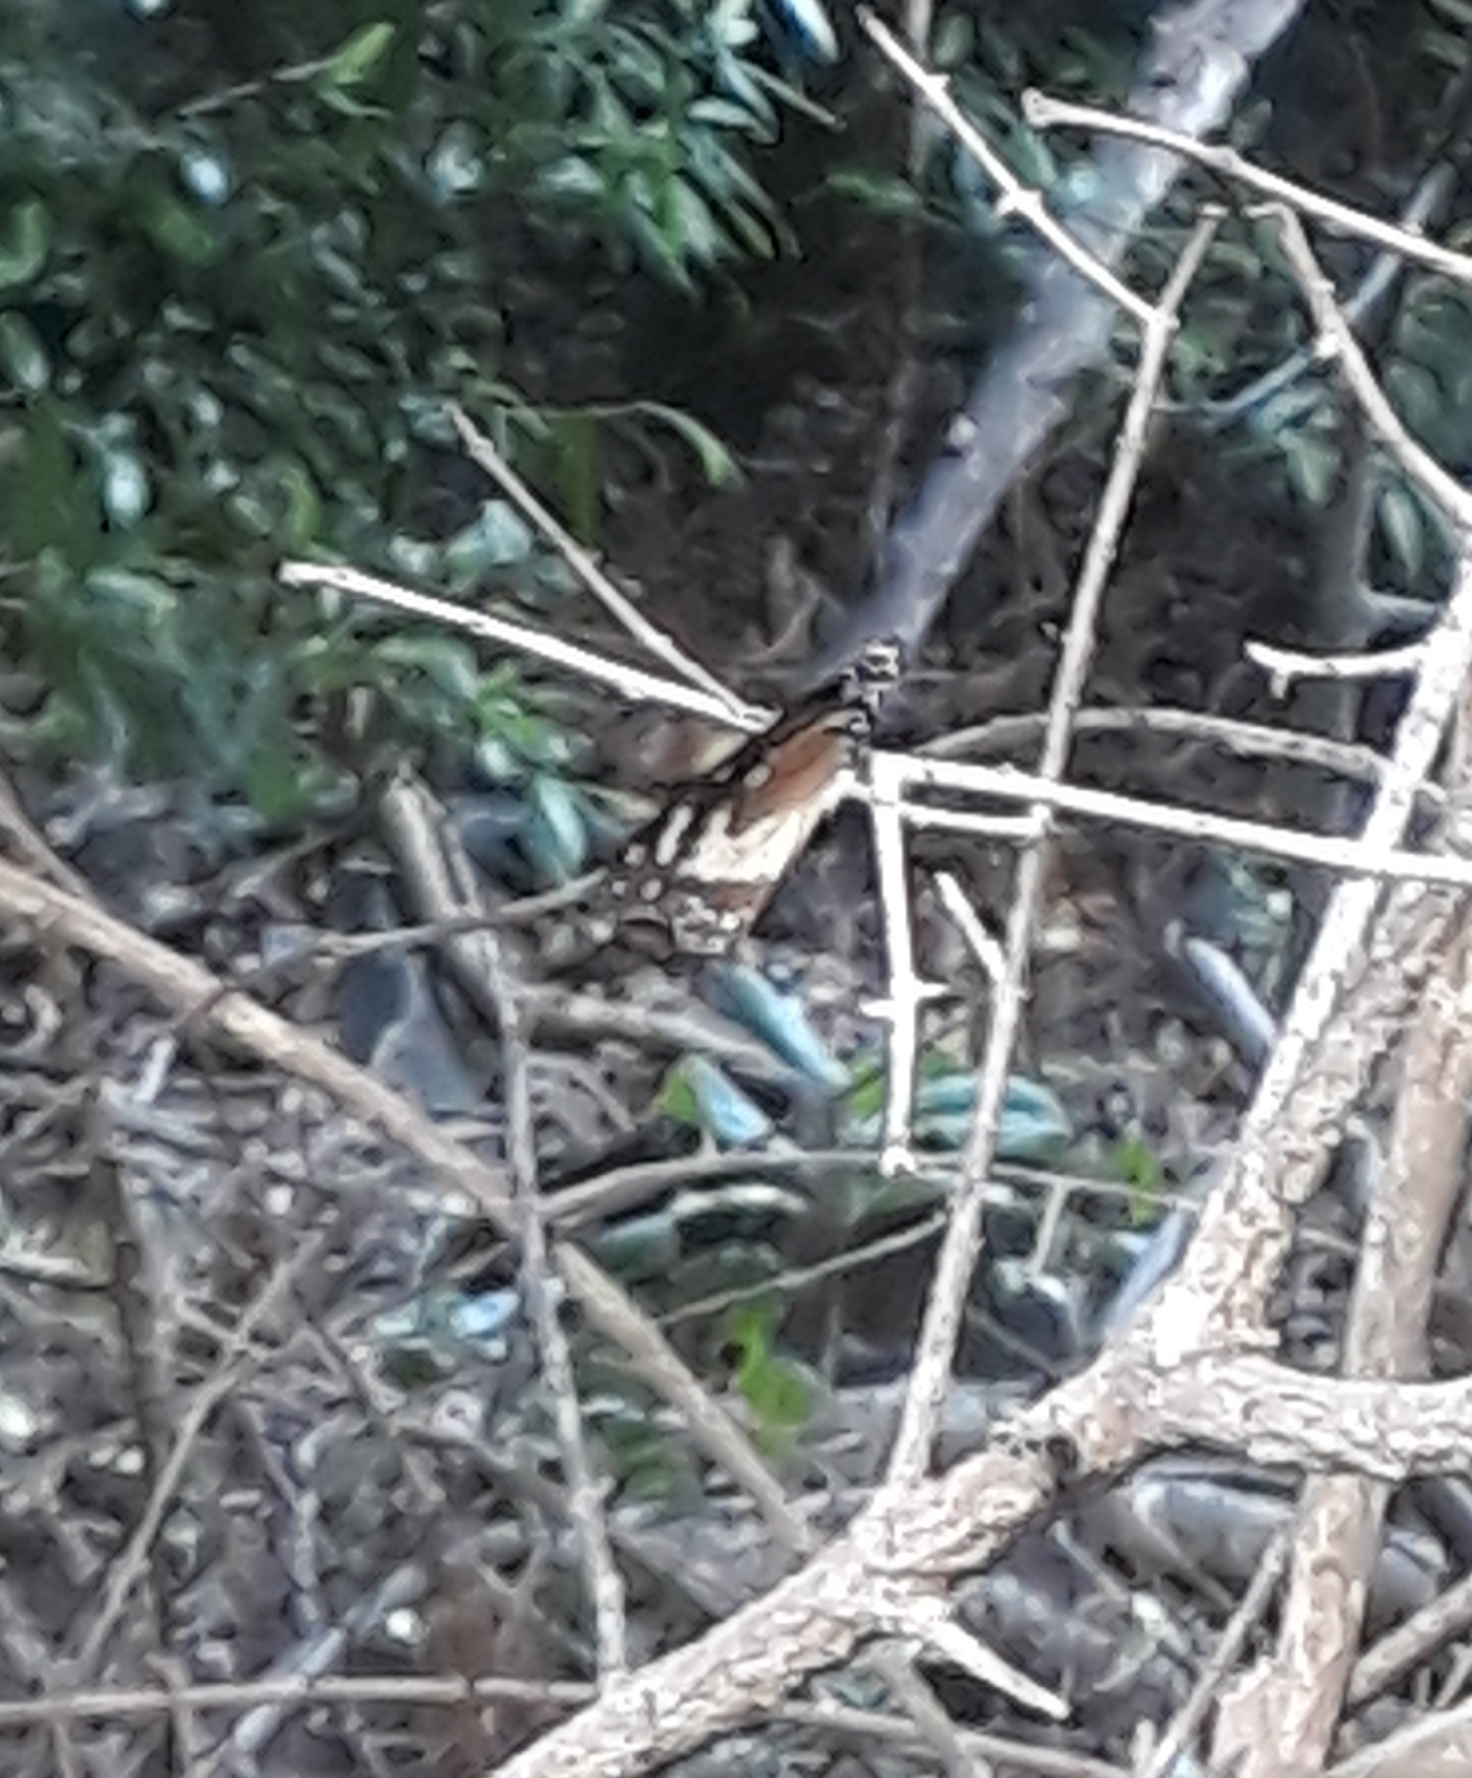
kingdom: Animalia
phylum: Arthropoda
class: Insecta
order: Lepidoptera
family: Nymphalidae
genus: Euploea
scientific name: Euploea euphon
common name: Mascarene crow
